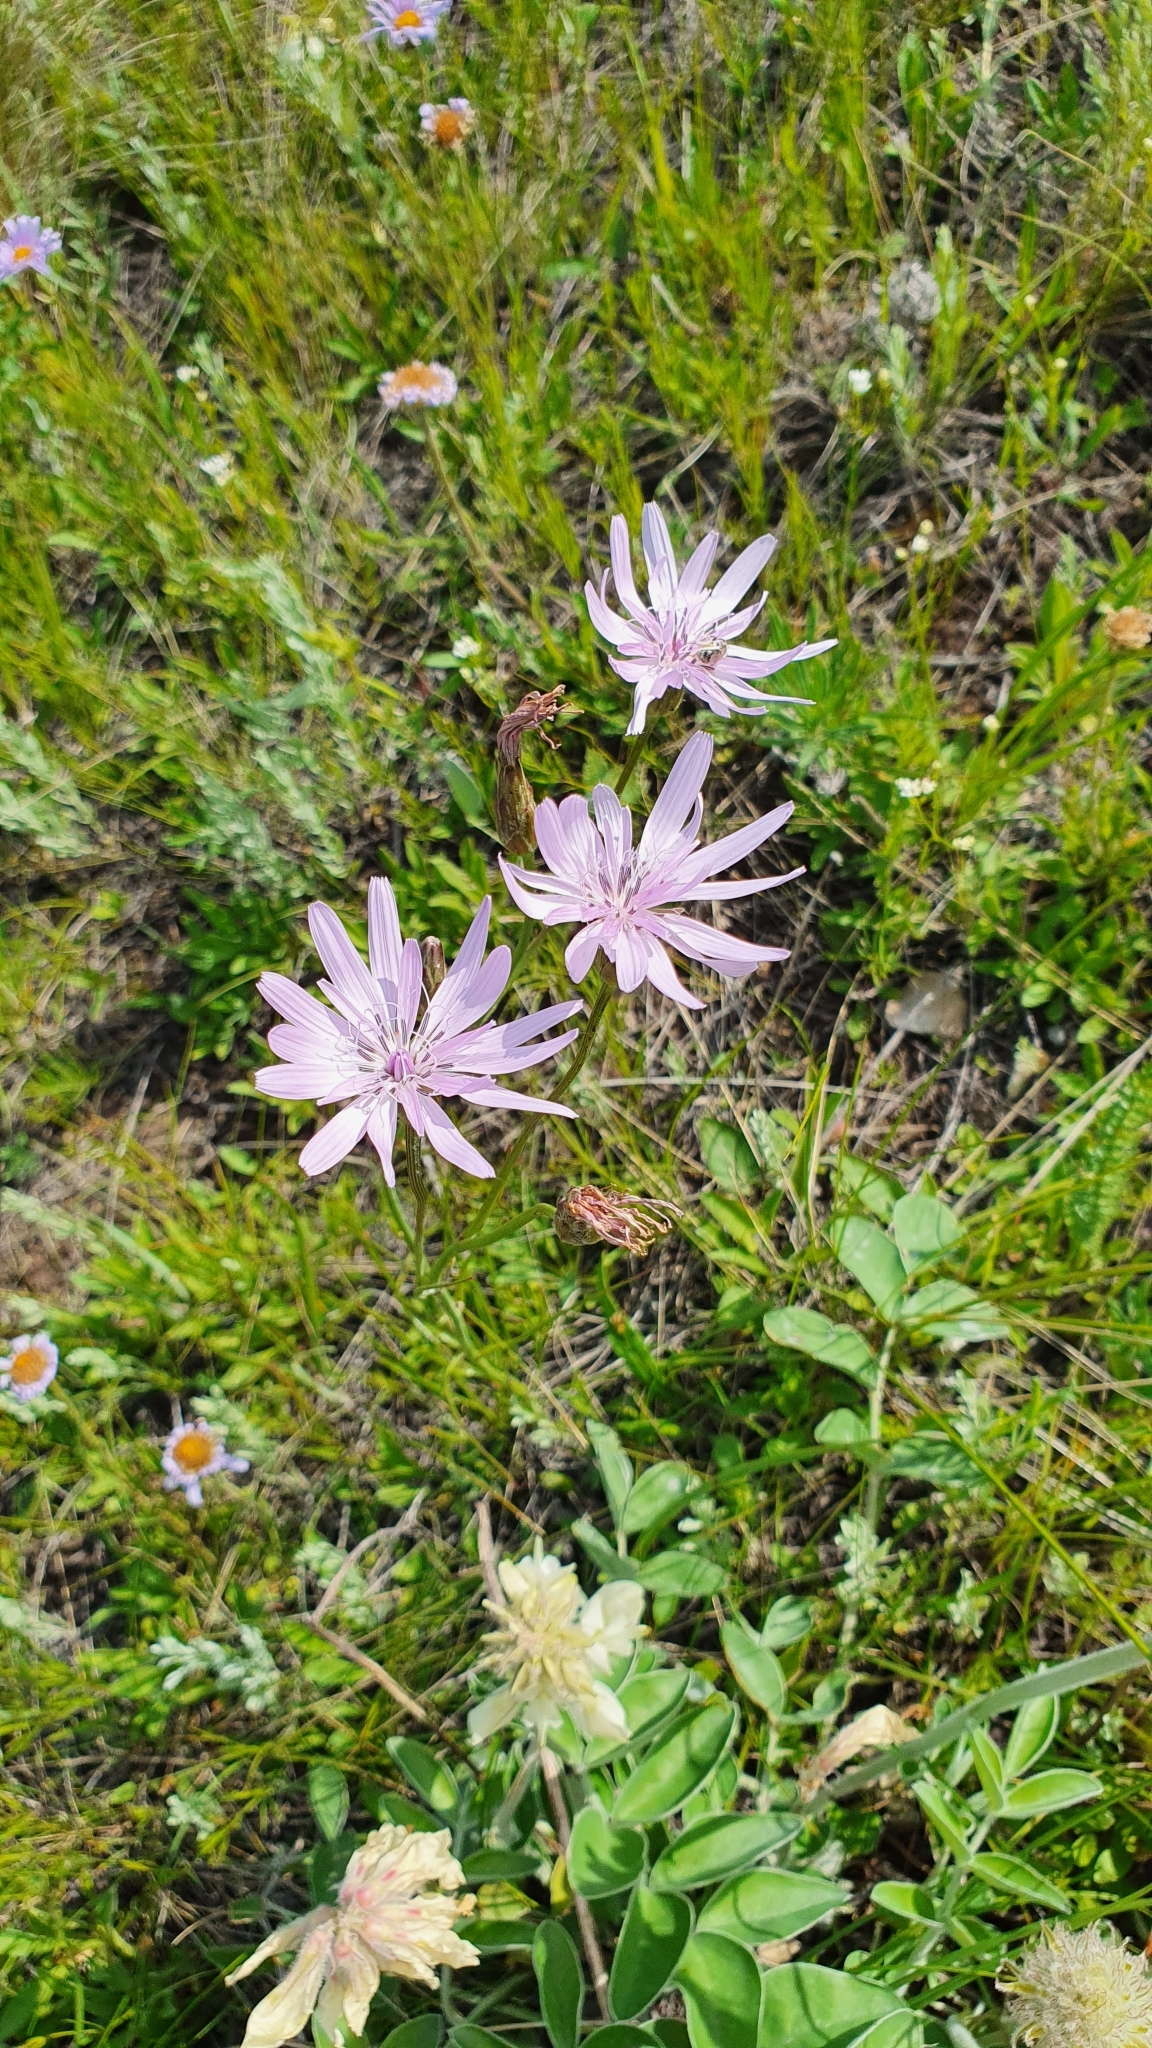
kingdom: Plantae
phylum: Tracheophyta
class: Magnoliopsida
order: Asterales
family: Asteraceae
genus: Scorzonera
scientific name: Scorzonera purpurea
